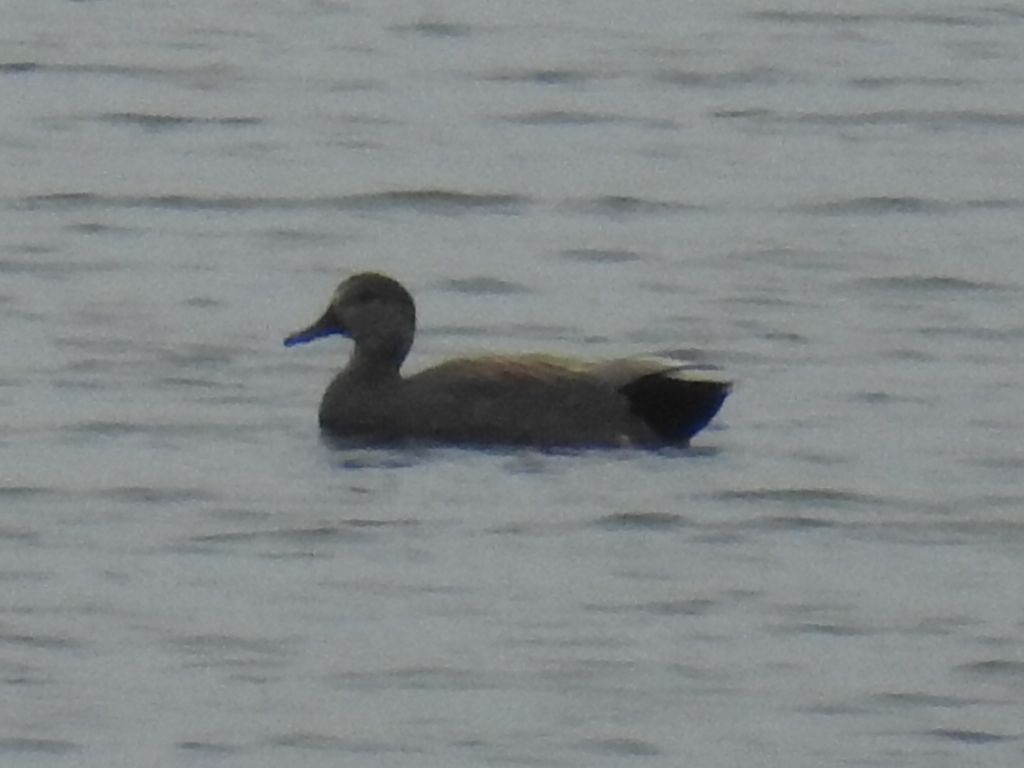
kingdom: Animalia
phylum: Chordata
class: Aves
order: Anseriformes
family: Anatidae
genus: Mareca
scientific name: Mareca strepera
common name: Gadwall
